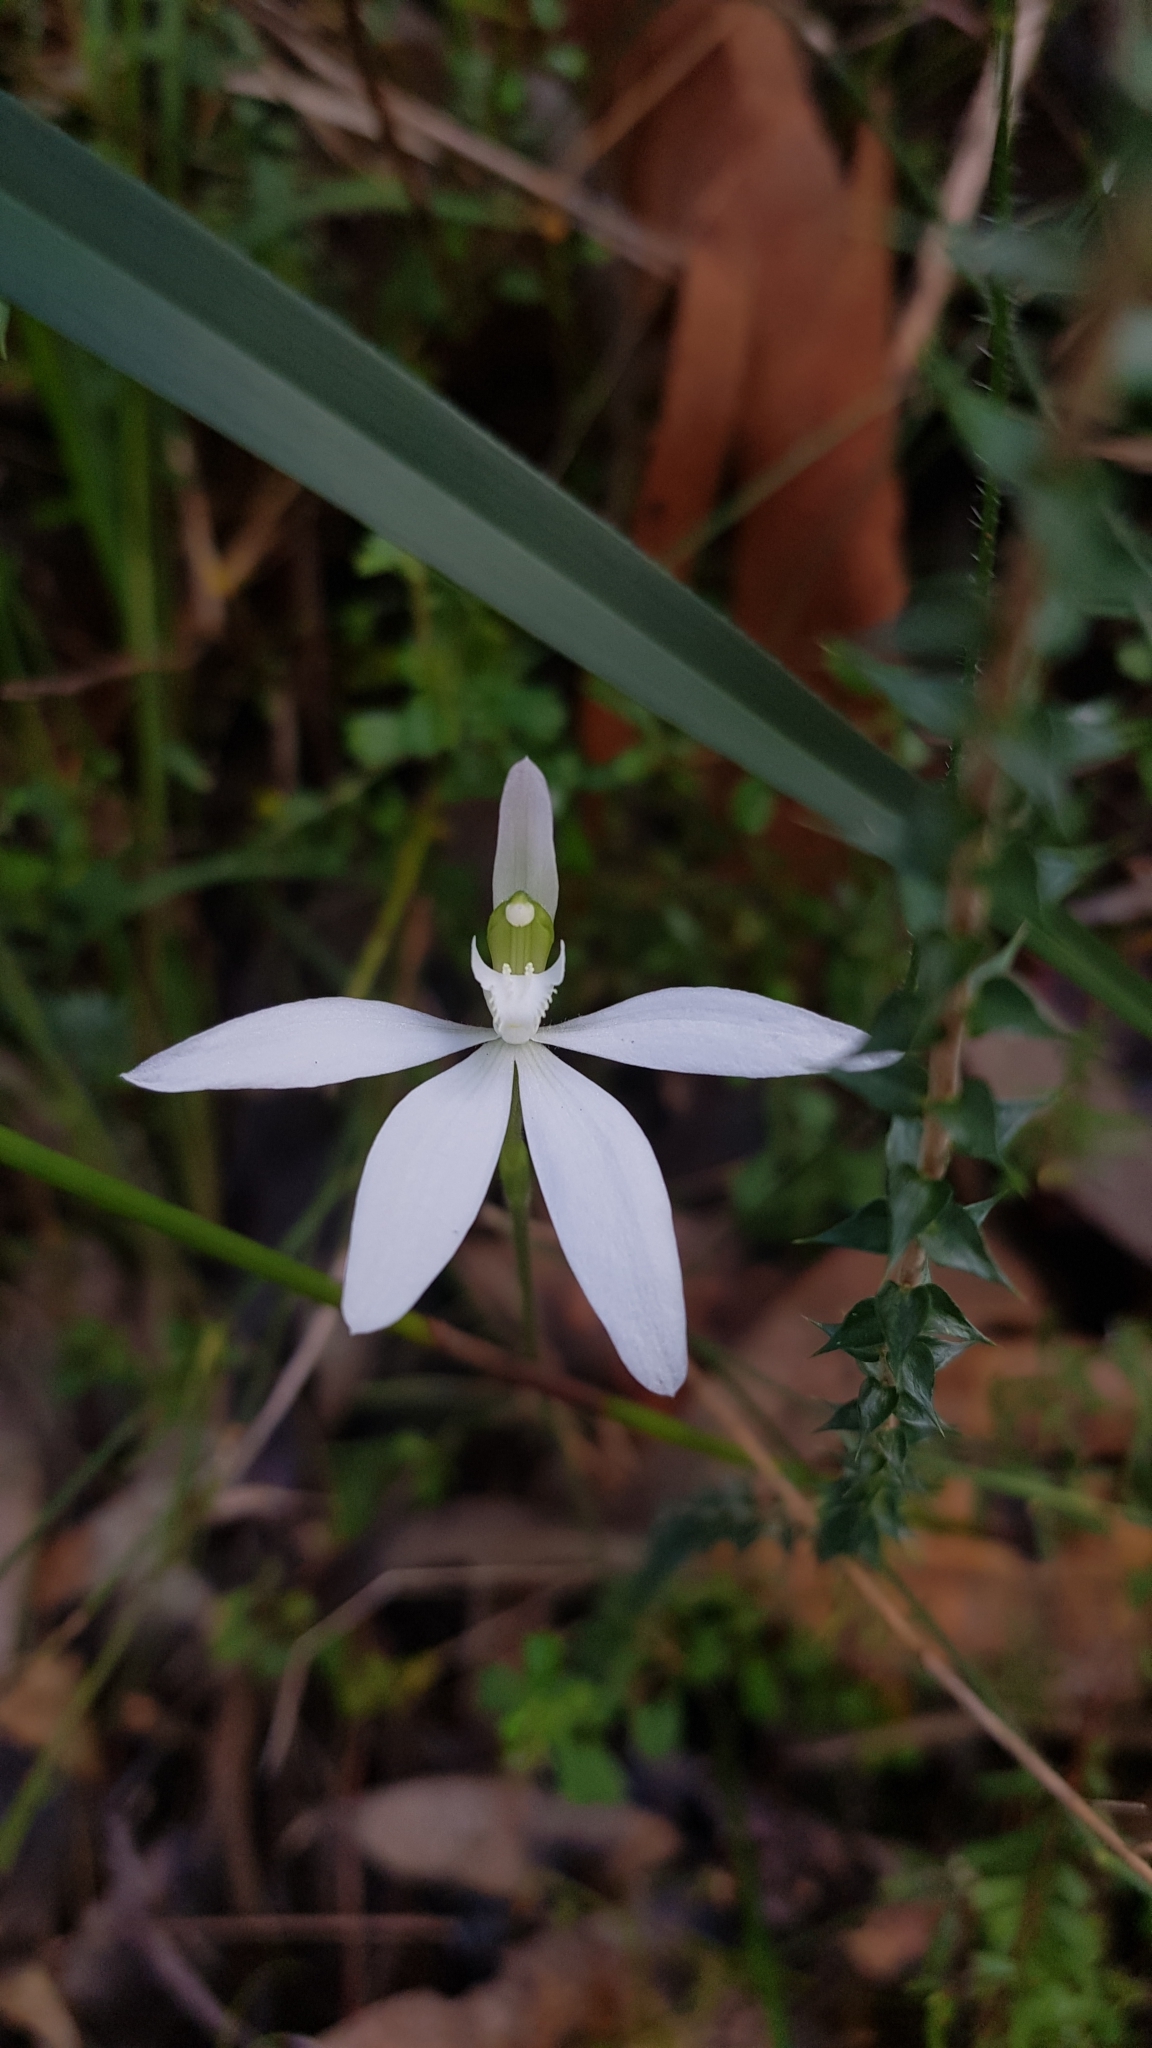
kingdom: Plantae
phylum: Tracheophyta
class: Liliopsida
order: Asparagales
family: Orchidaceae
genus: Caladenia
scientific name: Caladenia catenata
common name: White caladenia
